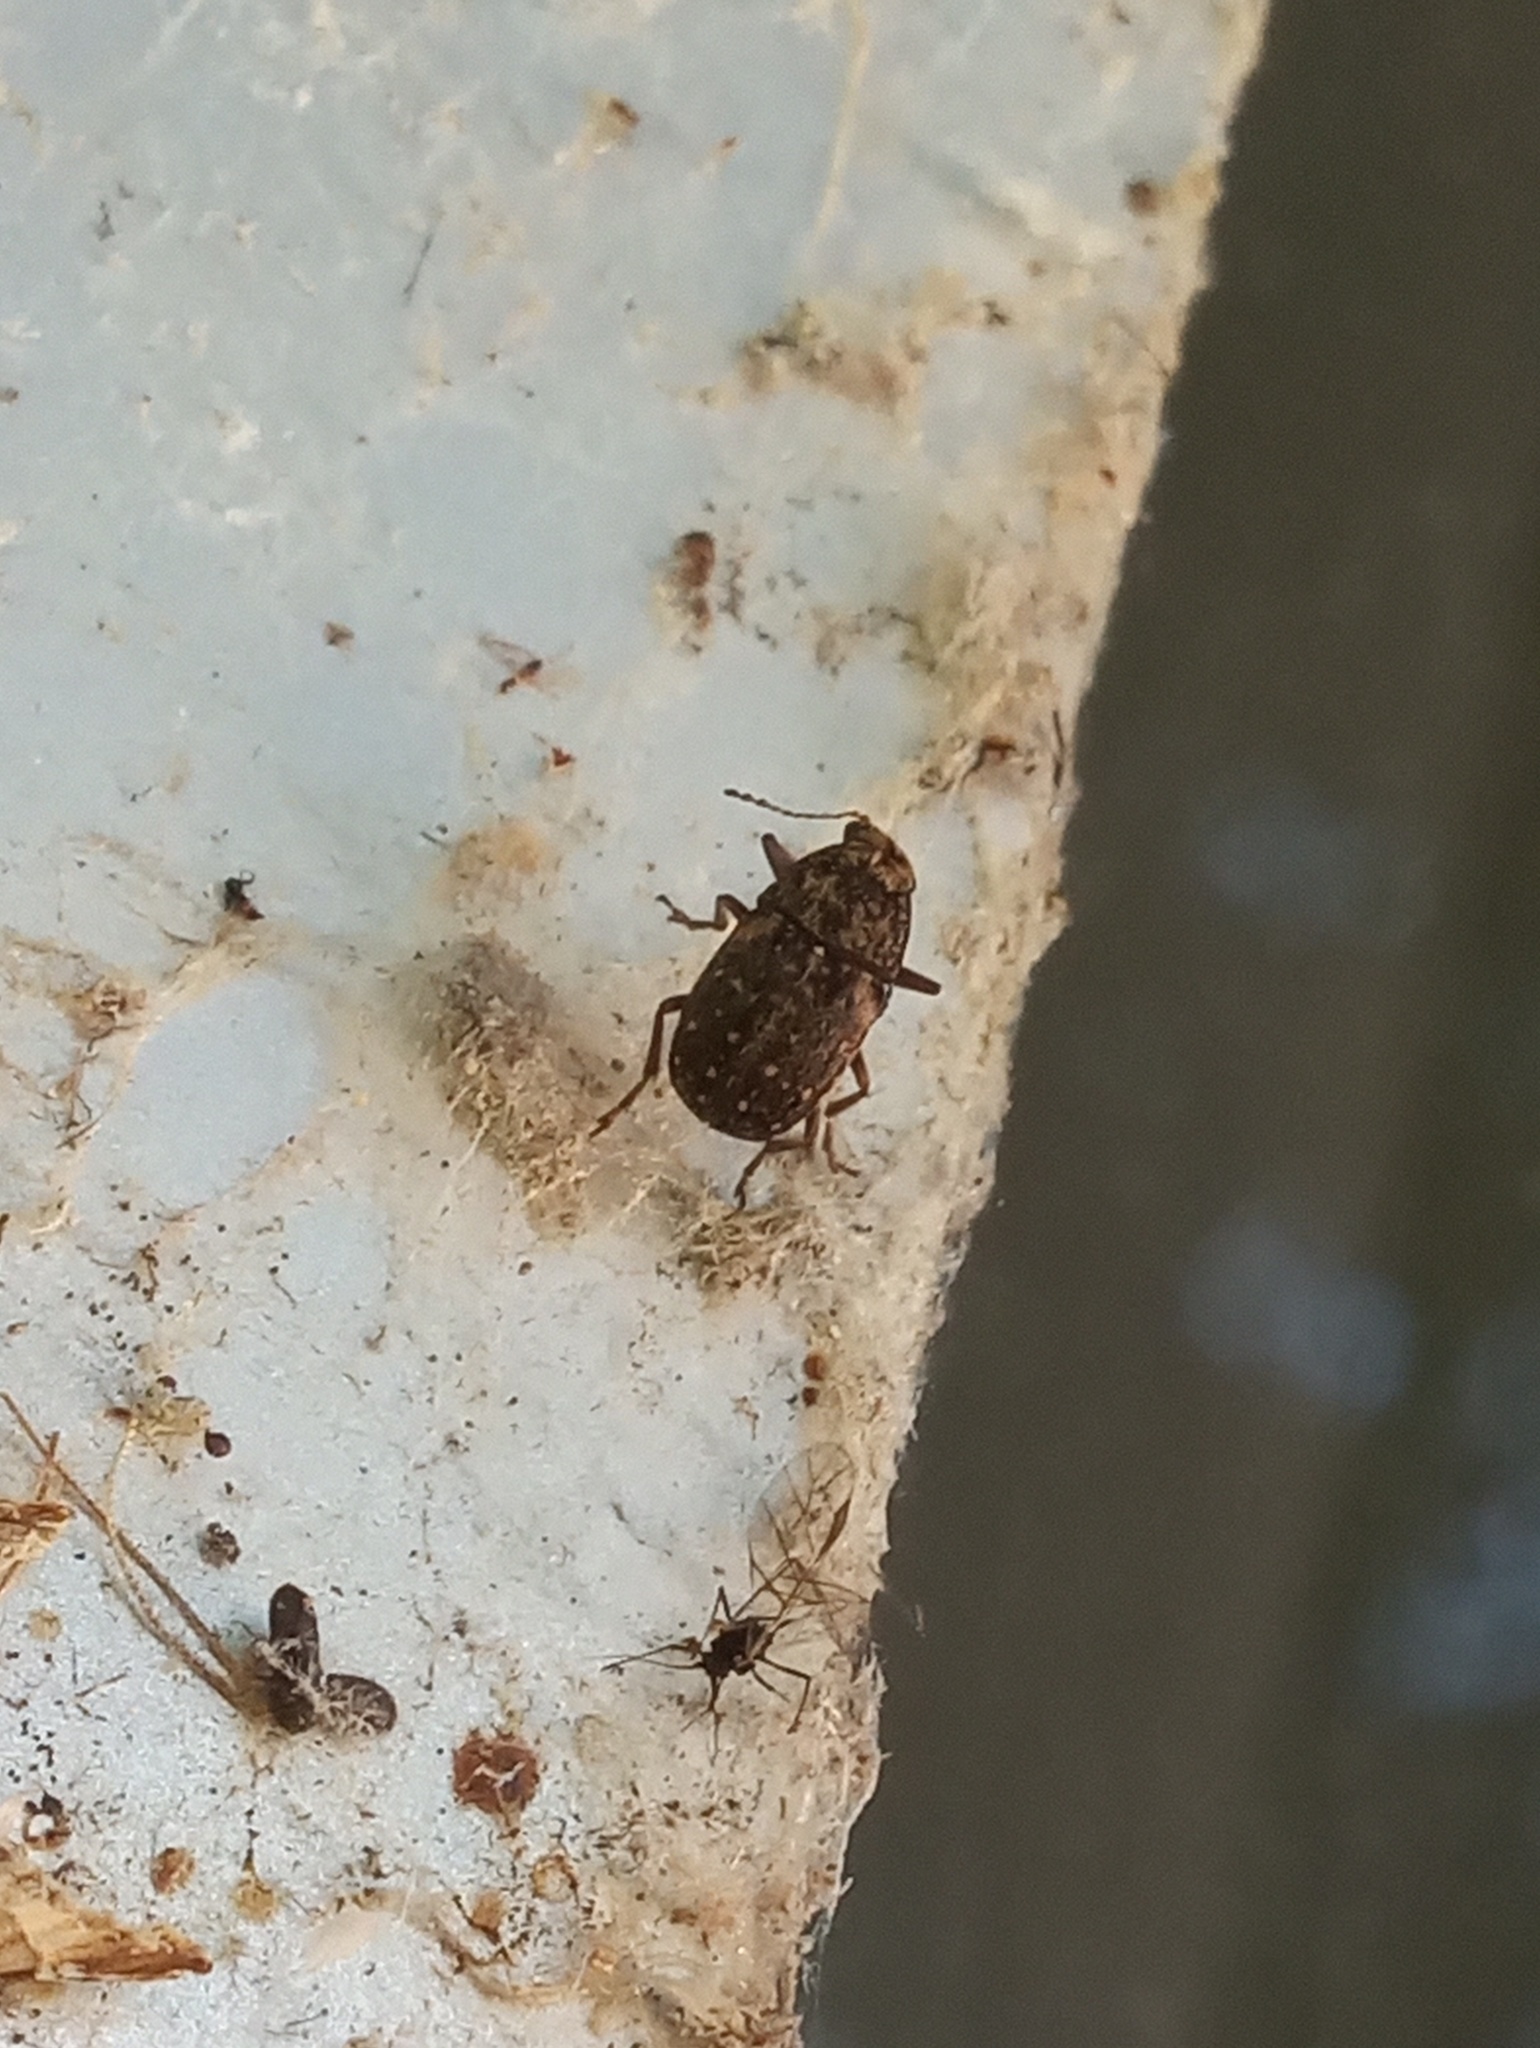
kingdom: Animalia
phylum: Arthropoda
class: Insecta
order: Coleoptera
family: Anthribidae
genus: Araecerus
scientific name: Araecerus fasciculatus
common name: Coffee bean weevil
